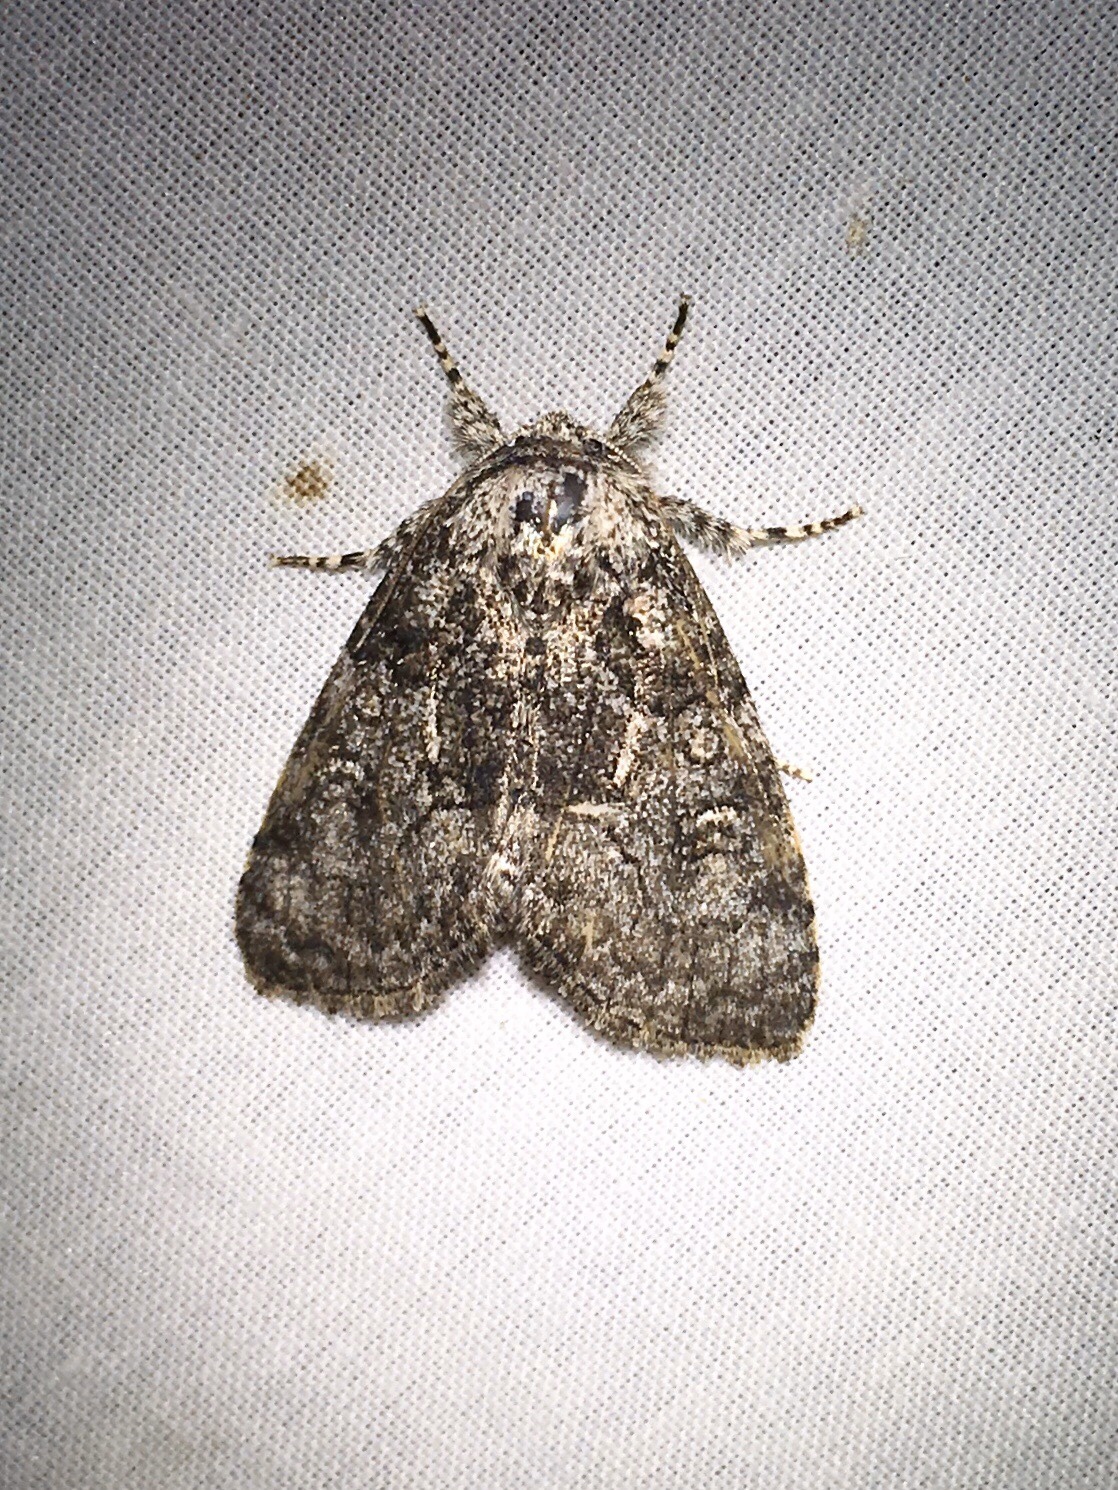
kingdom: Animalia
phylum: Arthropoda
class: Insecta
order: Lepidoptera
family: Noctuidae
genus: Raphia
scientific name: Raphia frater
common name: Brother
